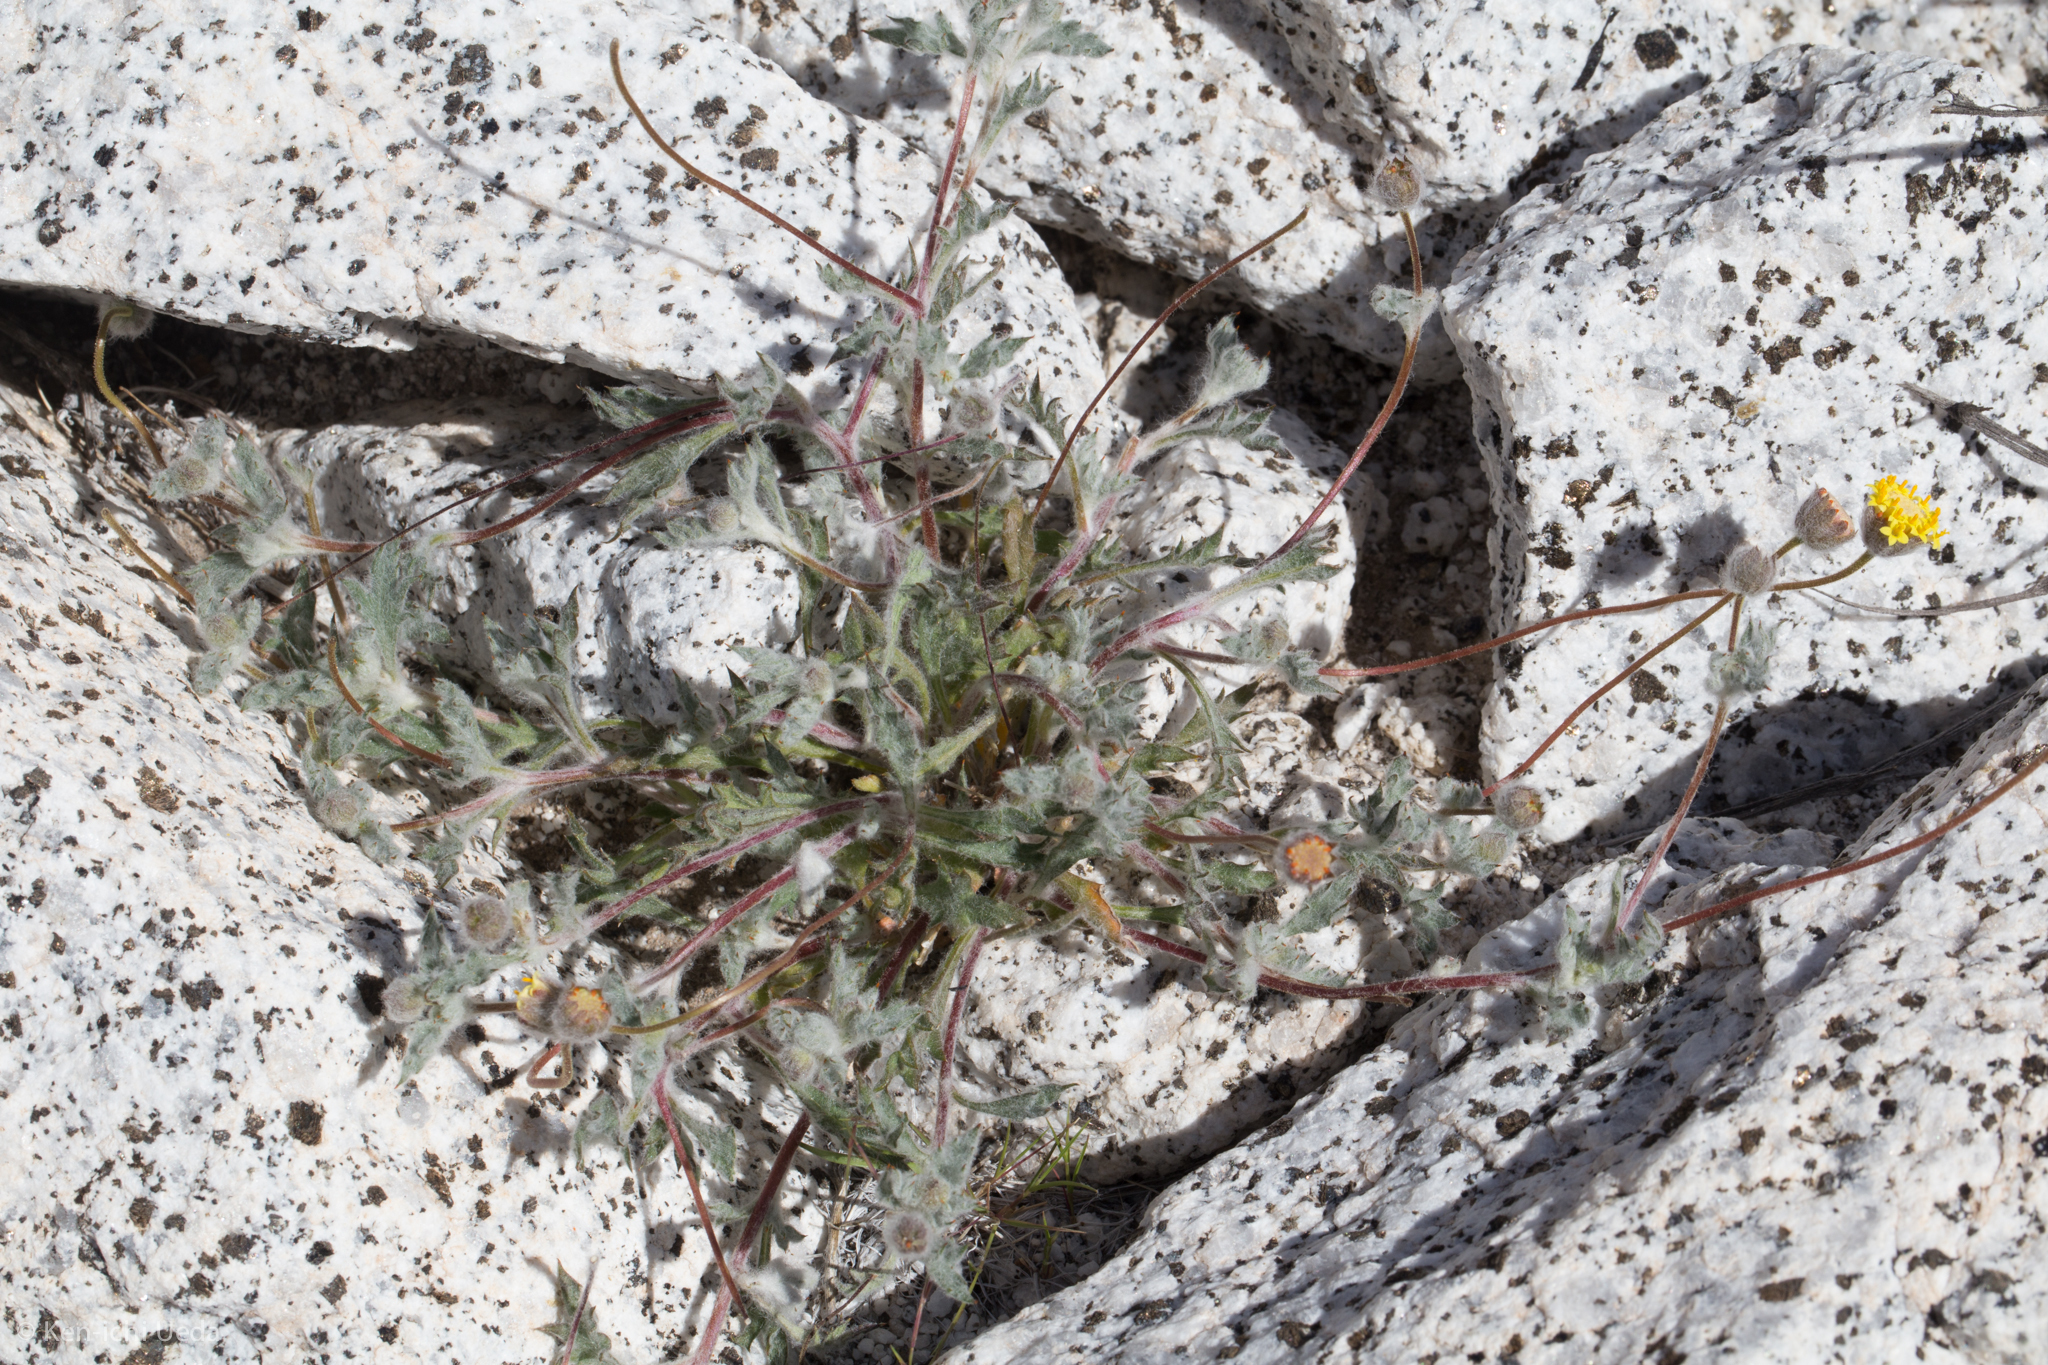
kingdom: Plantae
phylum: Tracheophyta
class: Magnoliopsida
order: Asterales
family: Asteraceae
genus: Trichoptilium
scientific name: Trichoptilium incisum
